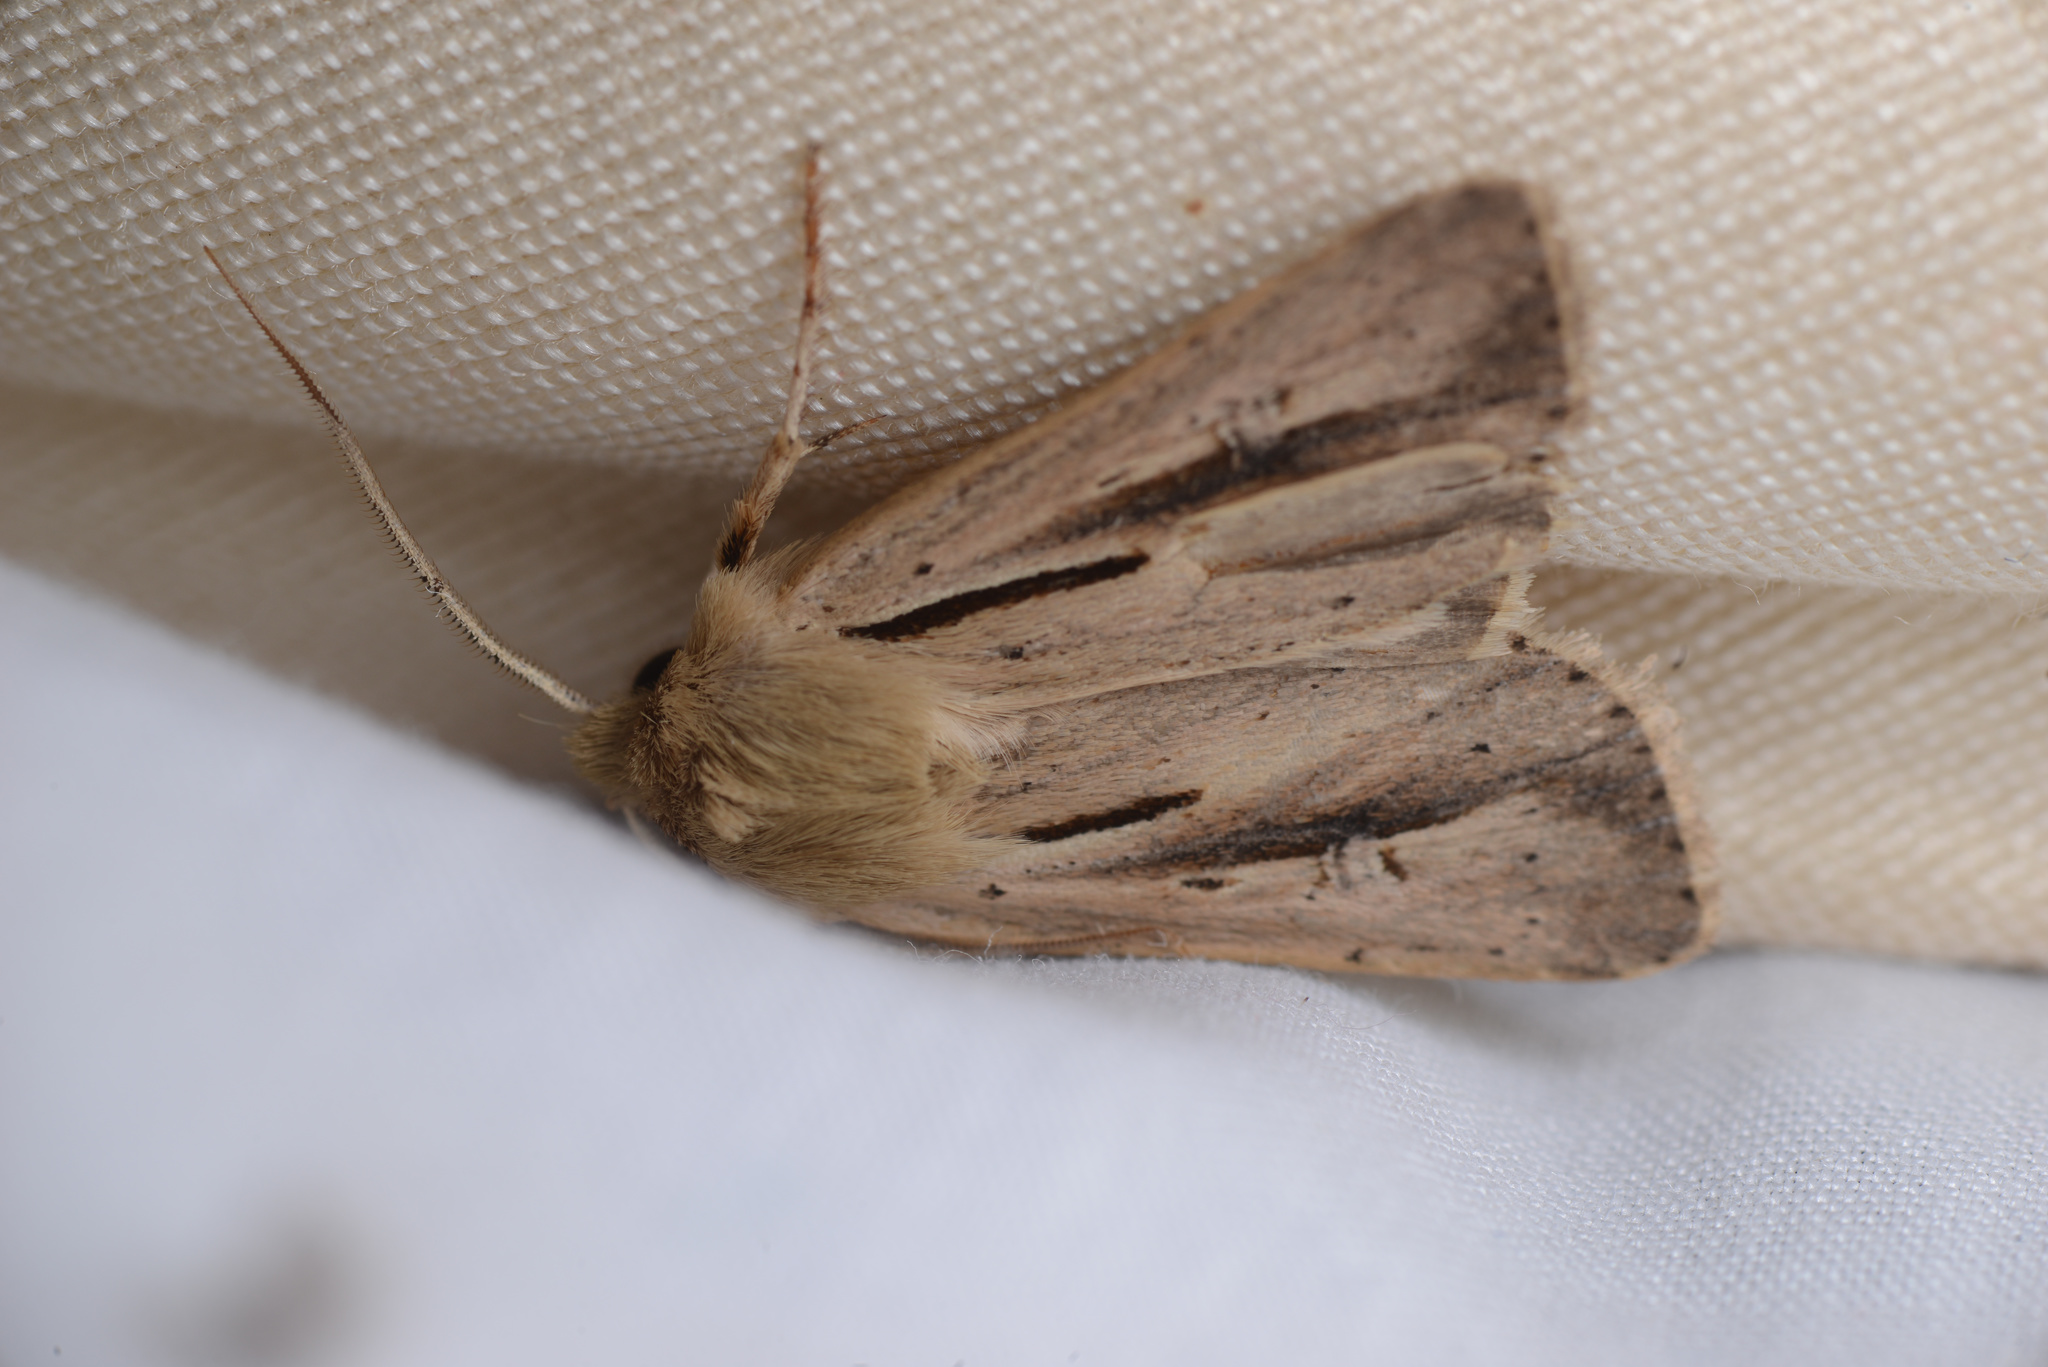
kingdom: Animalia
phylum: Arthropoda
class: Insecta
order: Lepidoptera
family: Noctuidae
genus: Ichneutica
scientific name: Ichneutica propria
